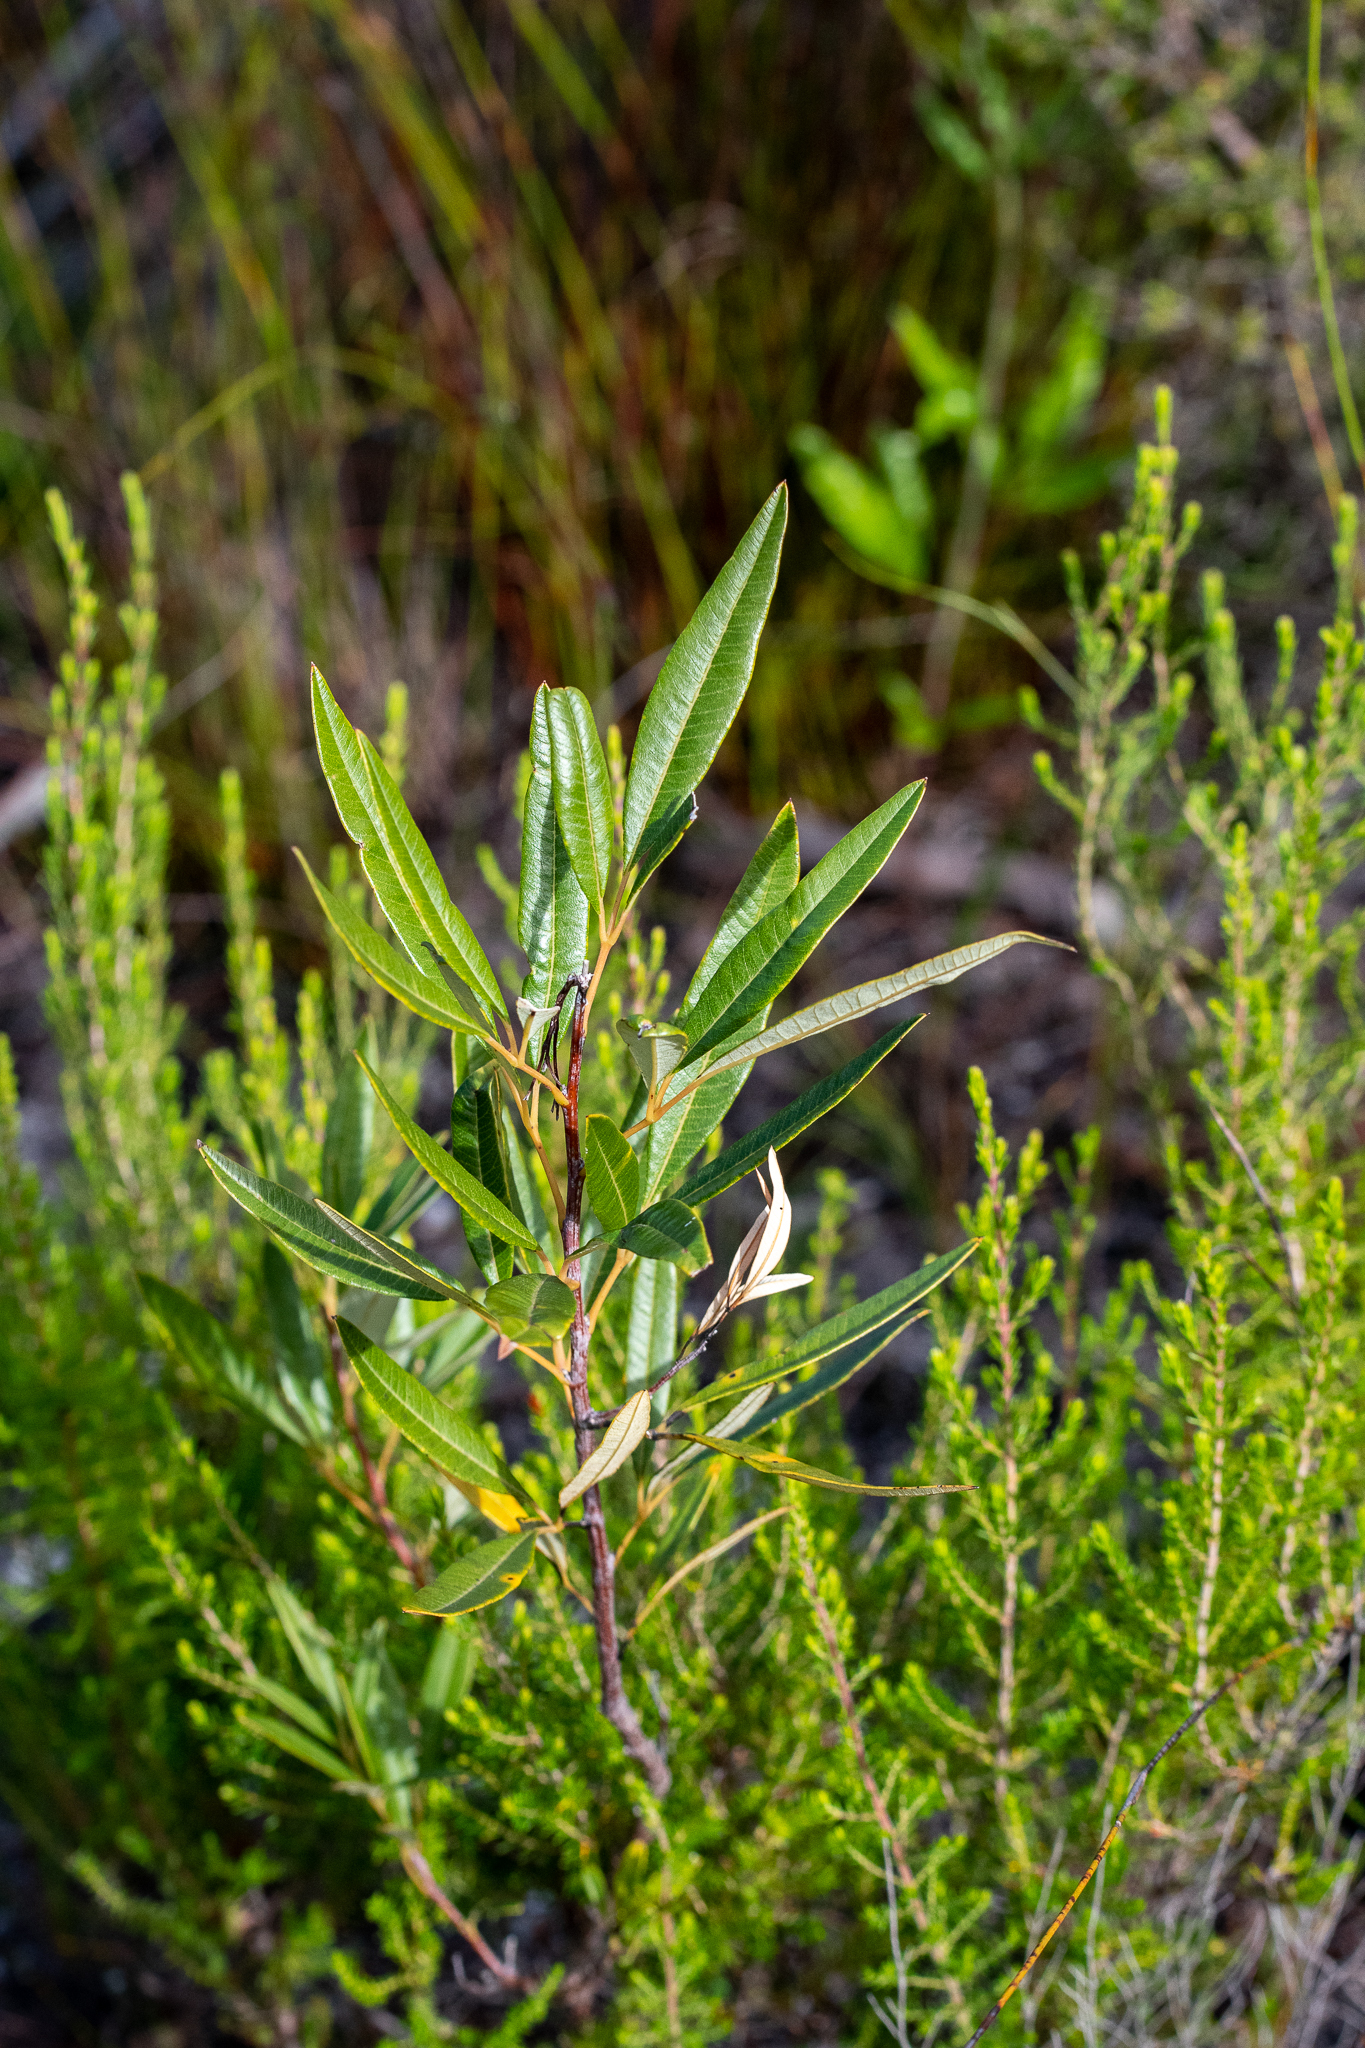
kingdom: Plantae
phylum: Tracheophyta
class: Magnoliopsida
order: Sapindales
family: Anacardiaceae
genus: Searsia
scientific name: Searsia angustifolia
